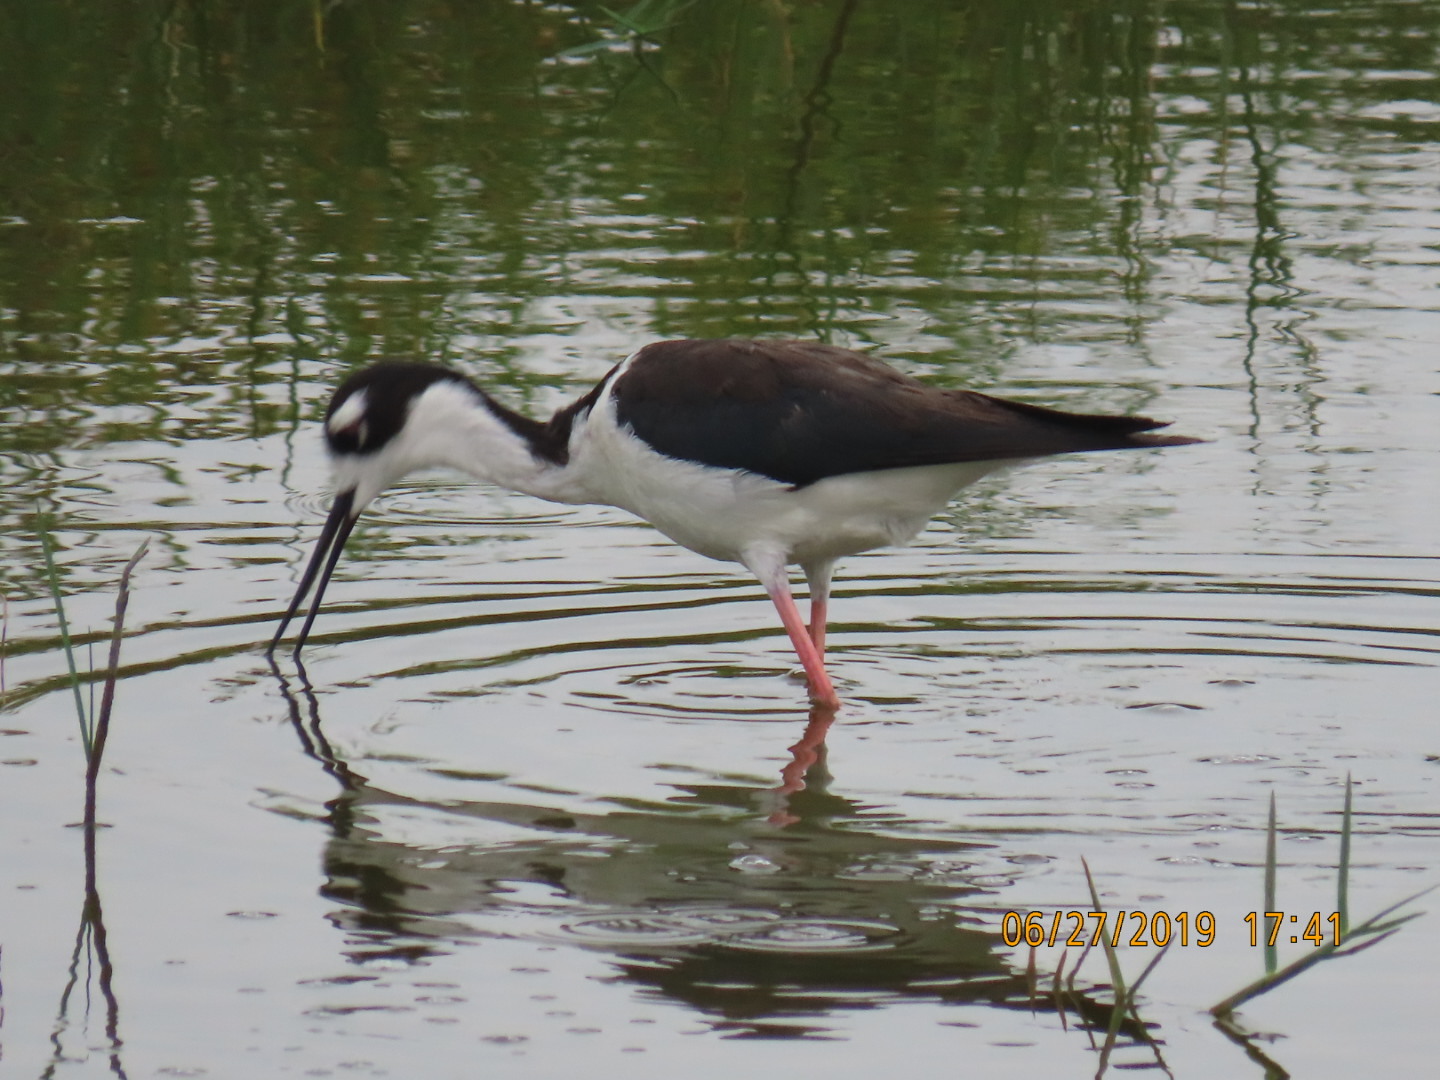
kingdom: Animalia
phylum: Chordata
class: Aves
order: Charadriiformes
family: Recurvirostridae
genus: Himantopus
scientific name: Himantopus mexicanus
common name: Black-necked stilt
